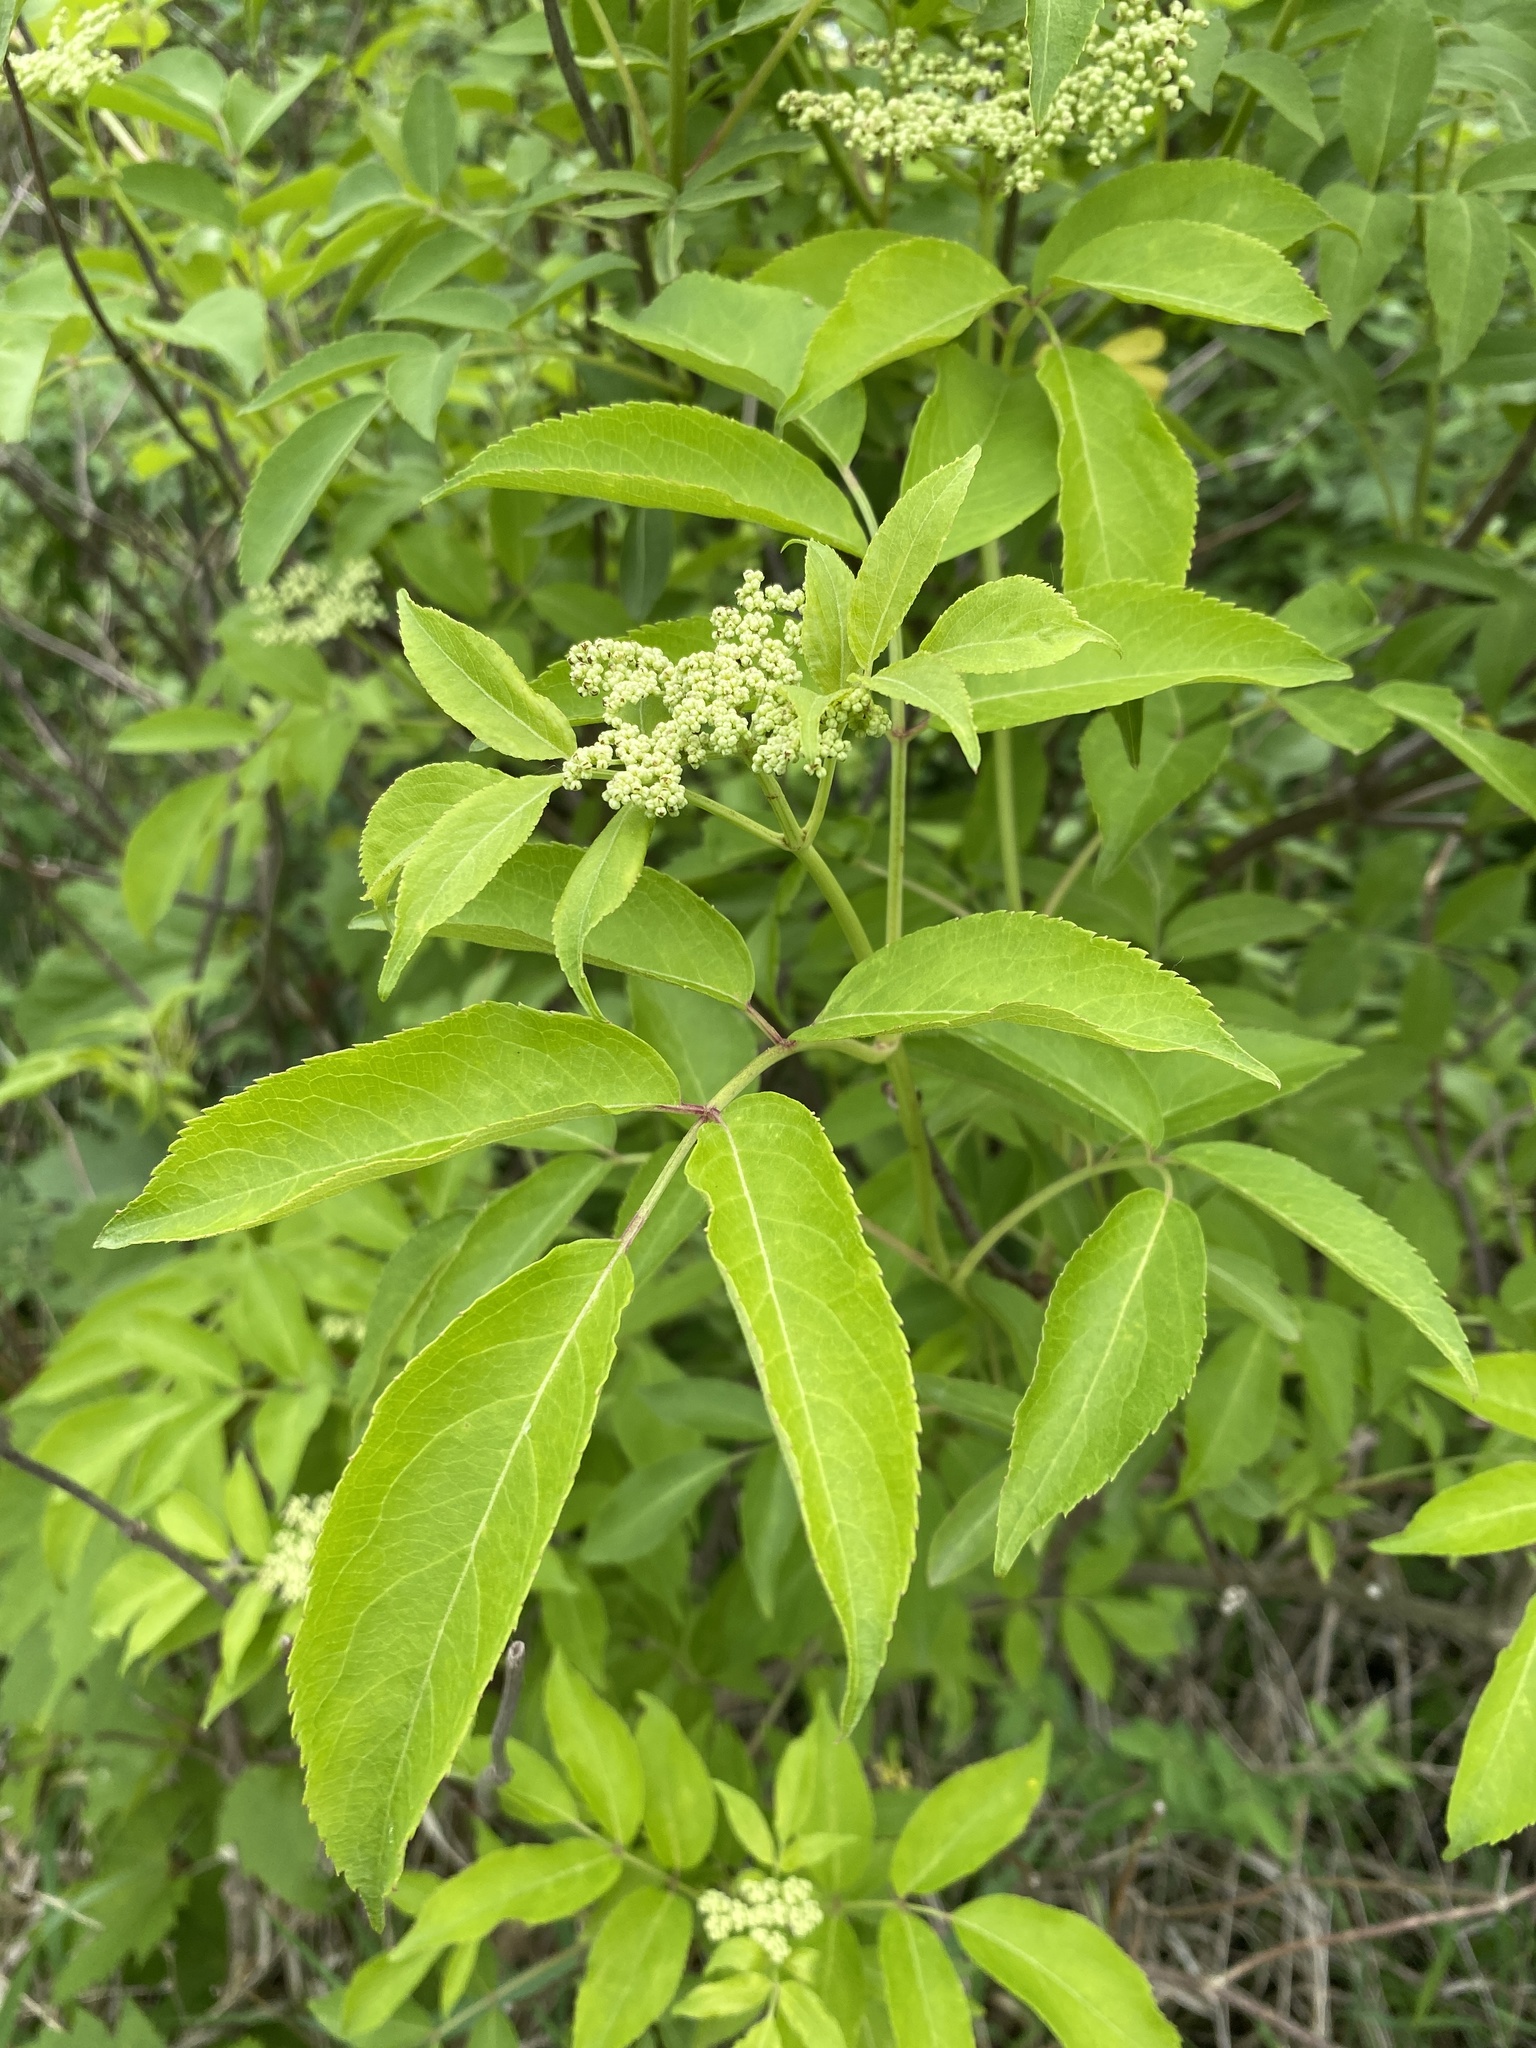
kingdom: Plantae
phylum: Tracheophyta
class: Magnoliopsida
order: Dipsacales
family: Viburnaceae
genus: Sambucus
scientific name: Sambucus canadensis
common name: American elder
